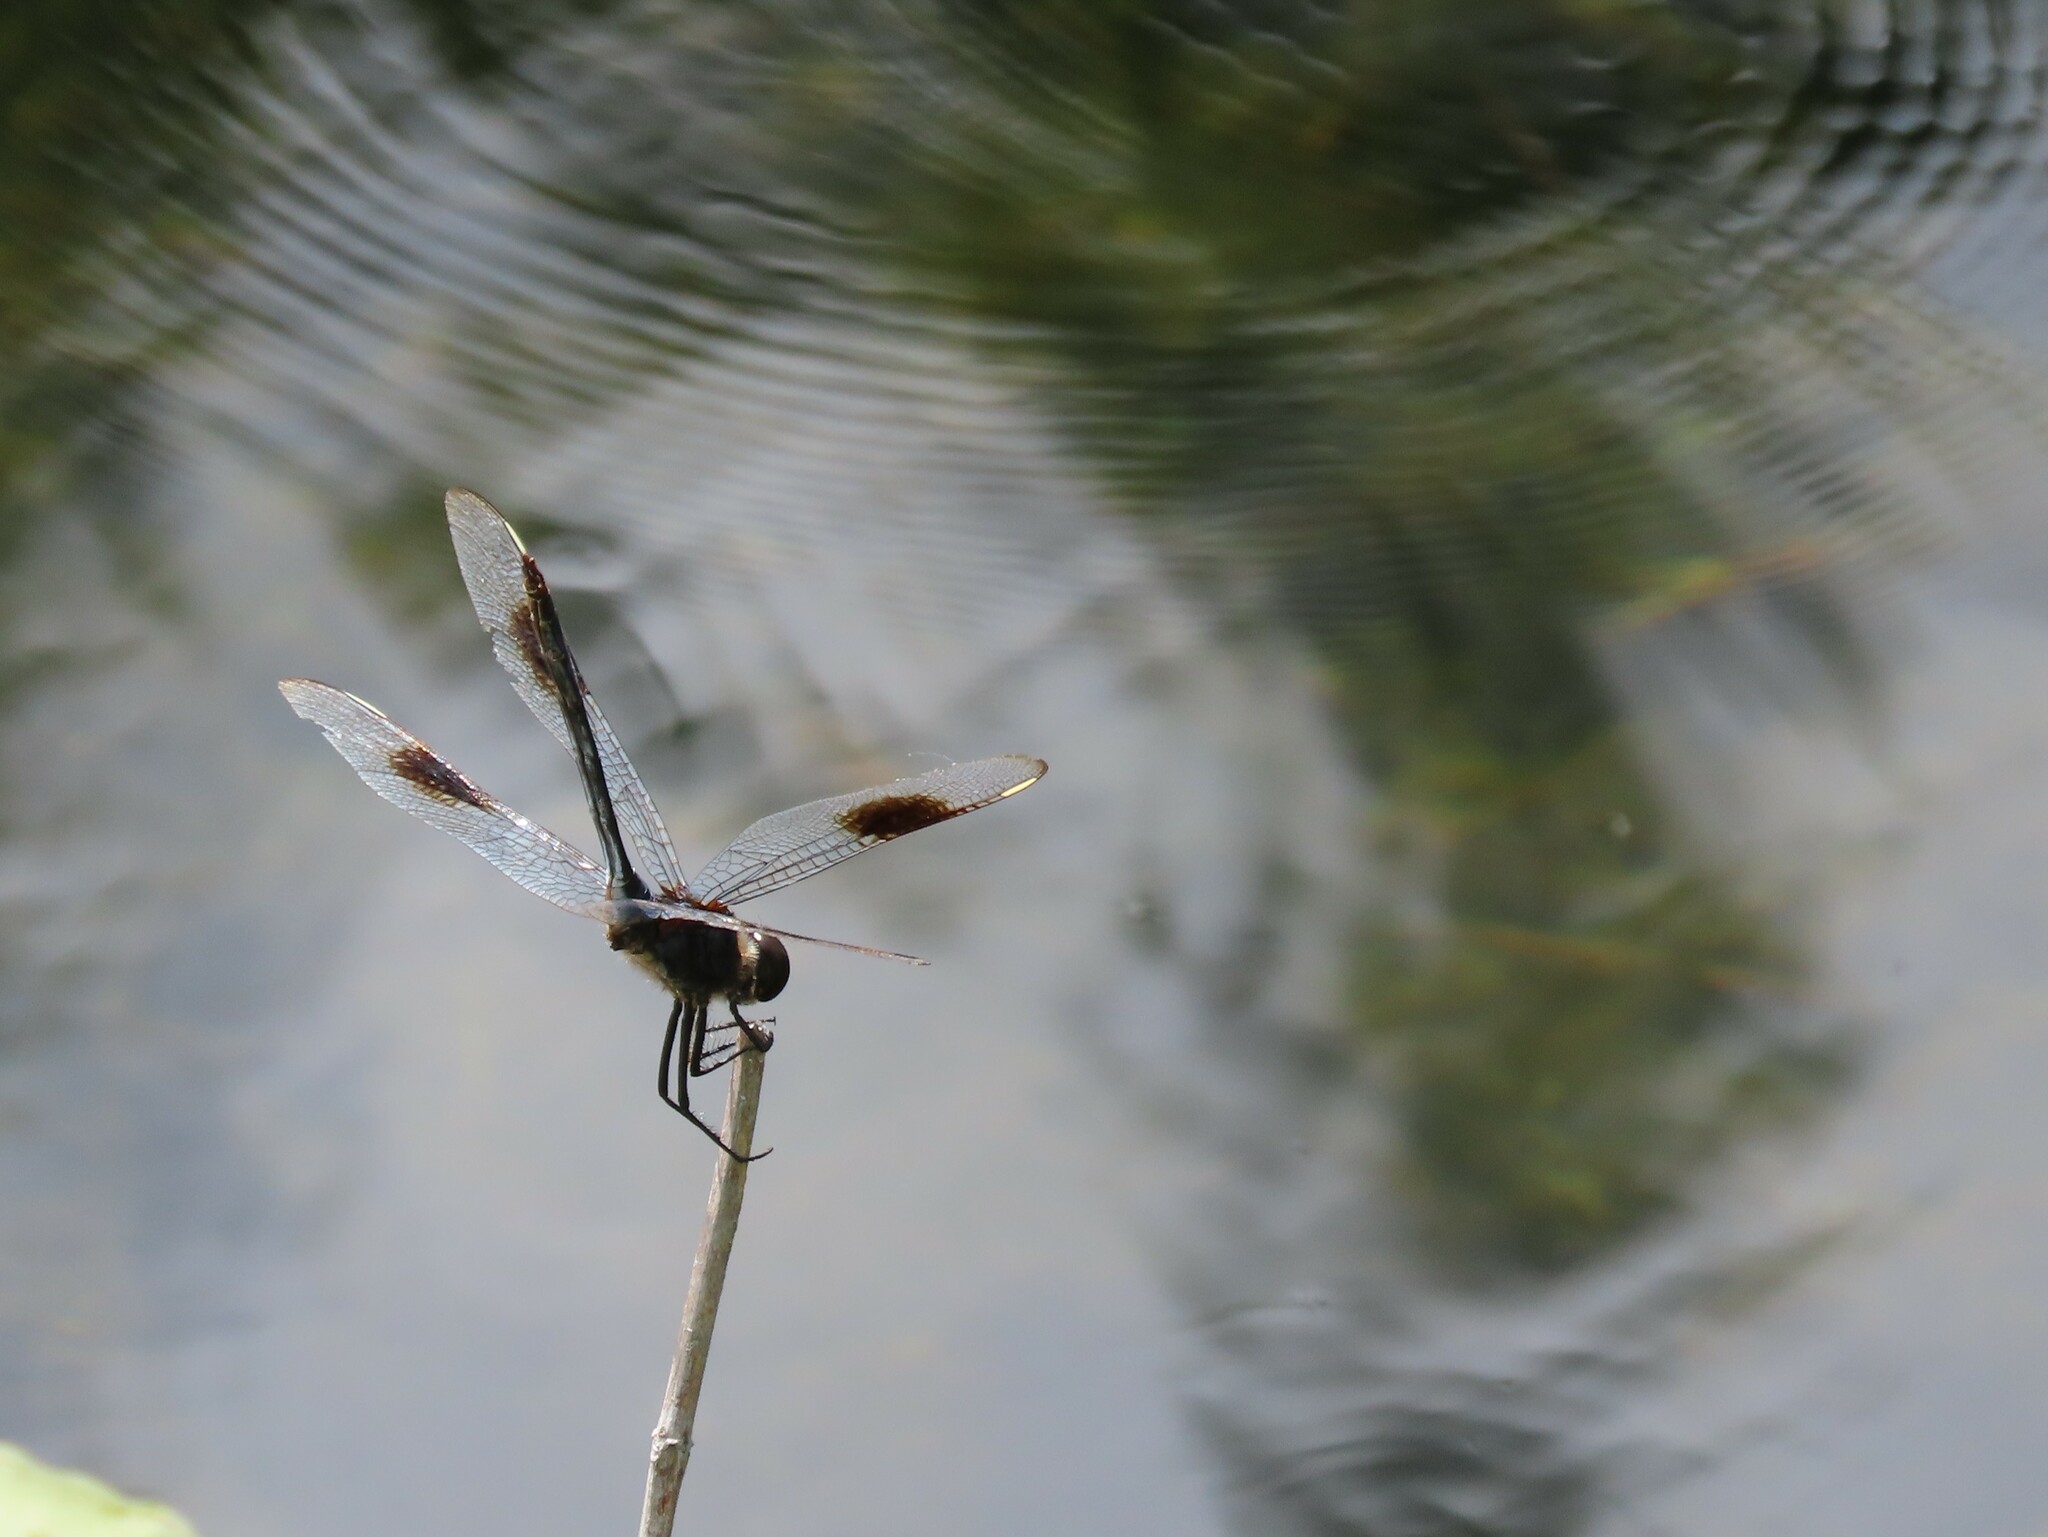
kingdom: Animalia
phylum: Arthropoda
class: Insecta
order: Odonata
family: Libellulidae
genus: Brachymesia
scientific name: Brachymesia gravida
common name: Four-spotted pennant
